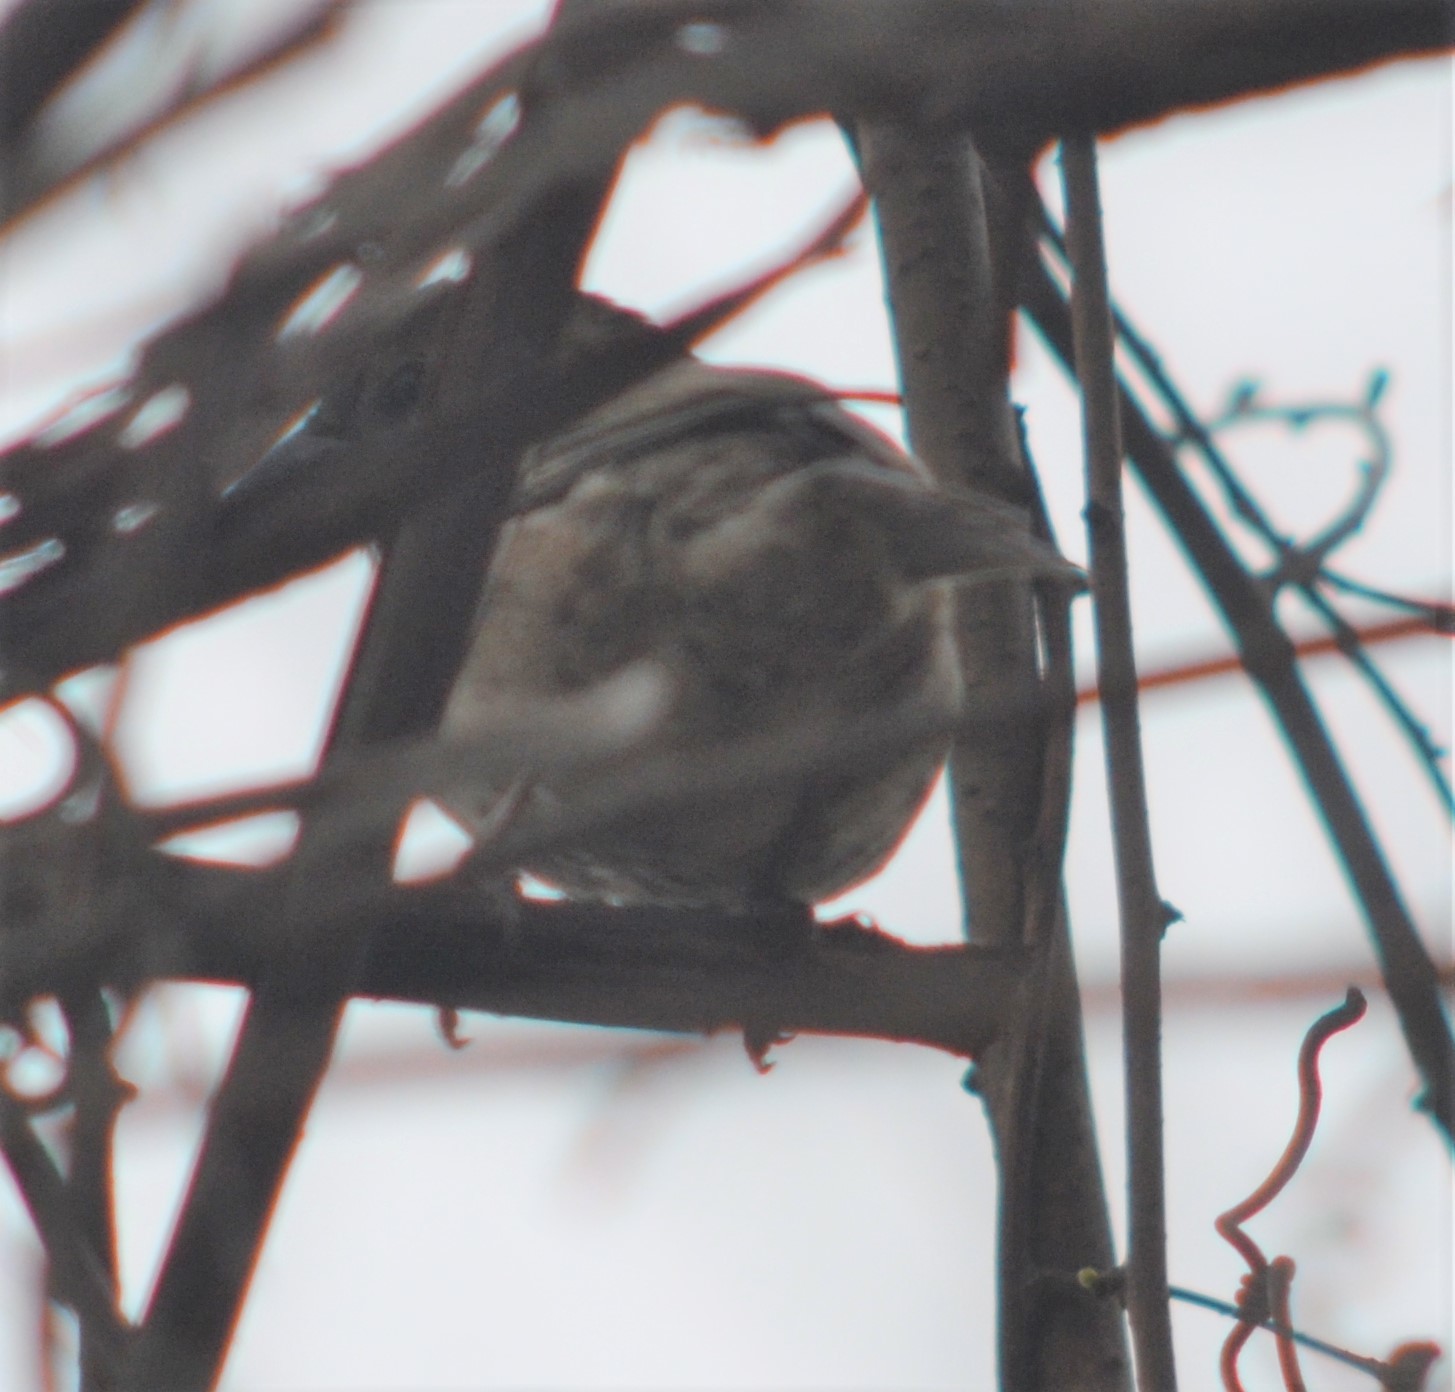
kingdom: Animalia
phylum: Chordata
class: Aves
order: Passeriformes
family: Fringillidae
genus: Haemorhous
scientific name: Haemorhous mexicanus
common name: House finch
